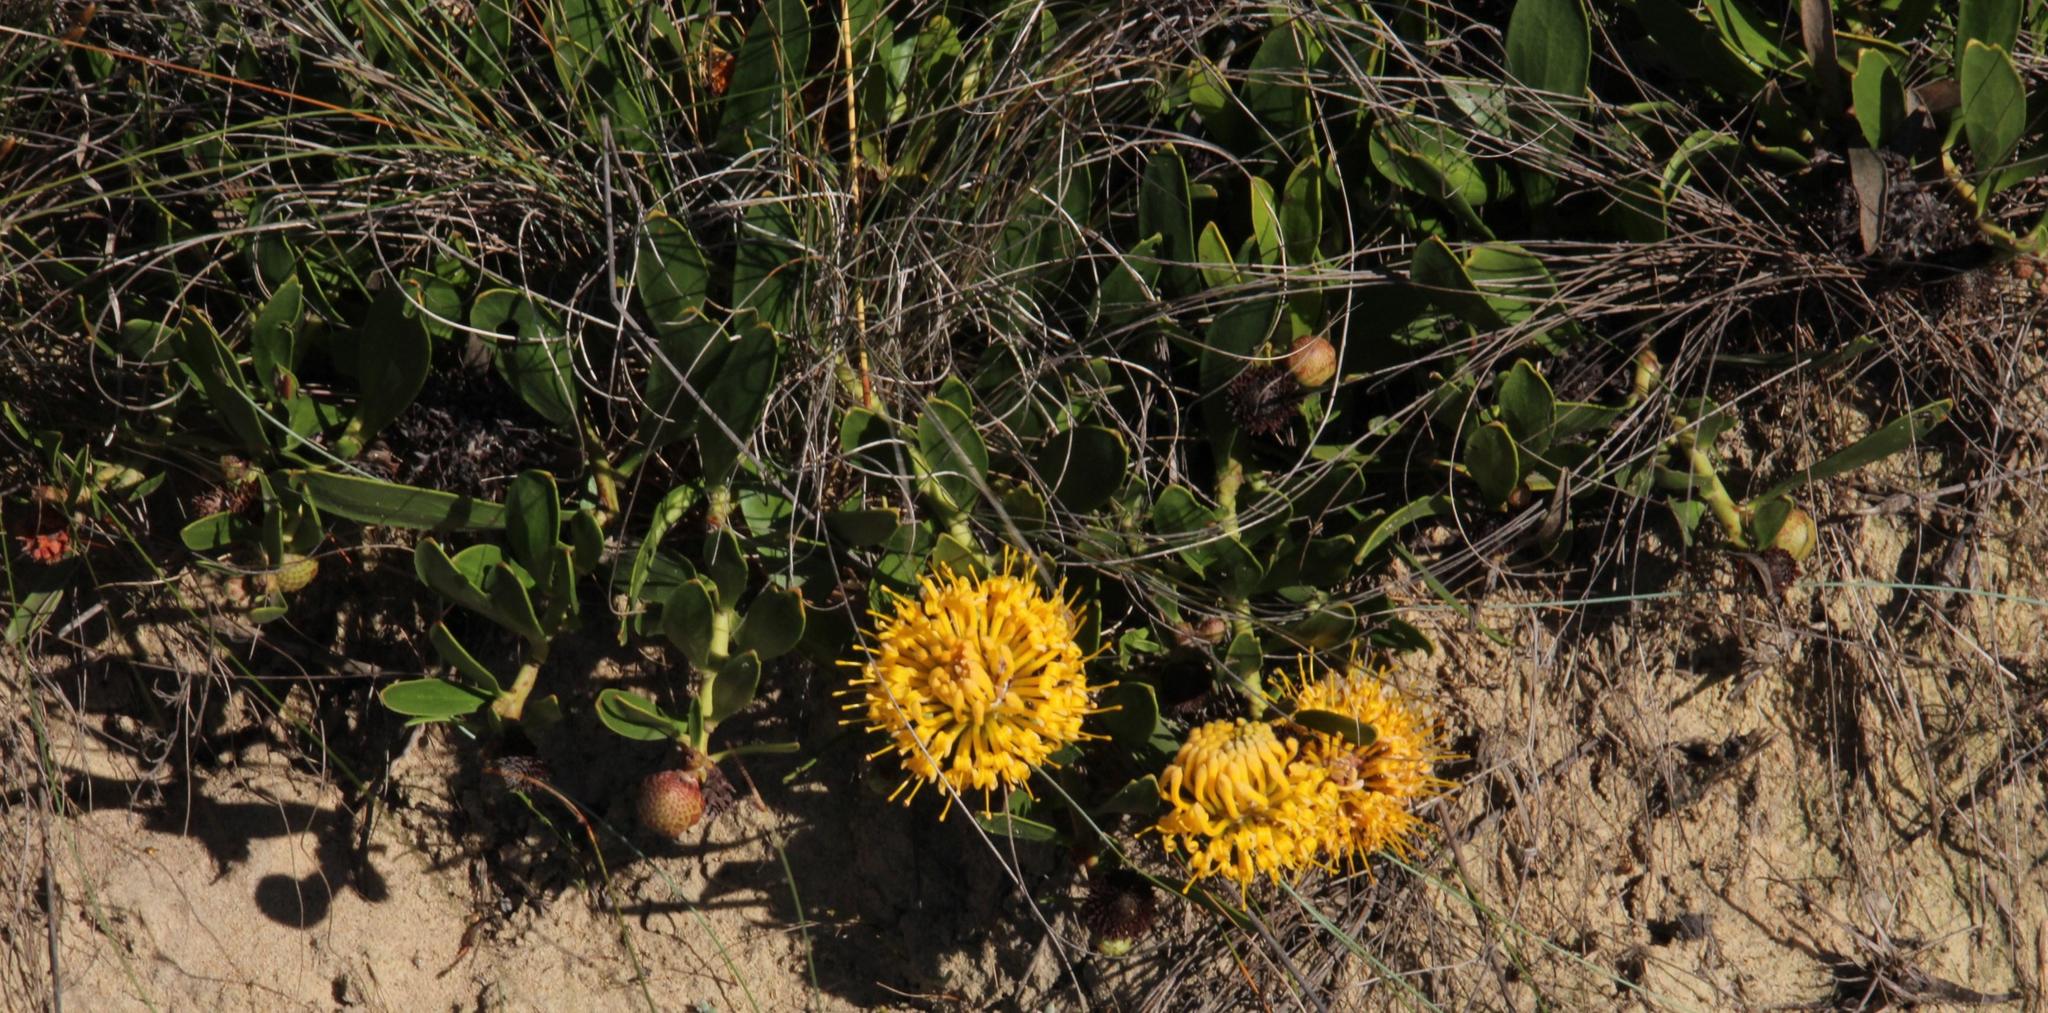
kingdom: Plantae
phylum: Tracheophyta
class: Magnoliopsida
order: Proteales
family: Proteaceae
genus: Leucospermum
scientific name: Leucospermum hypophyllocarpodendron
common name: Snakestem pincushion
